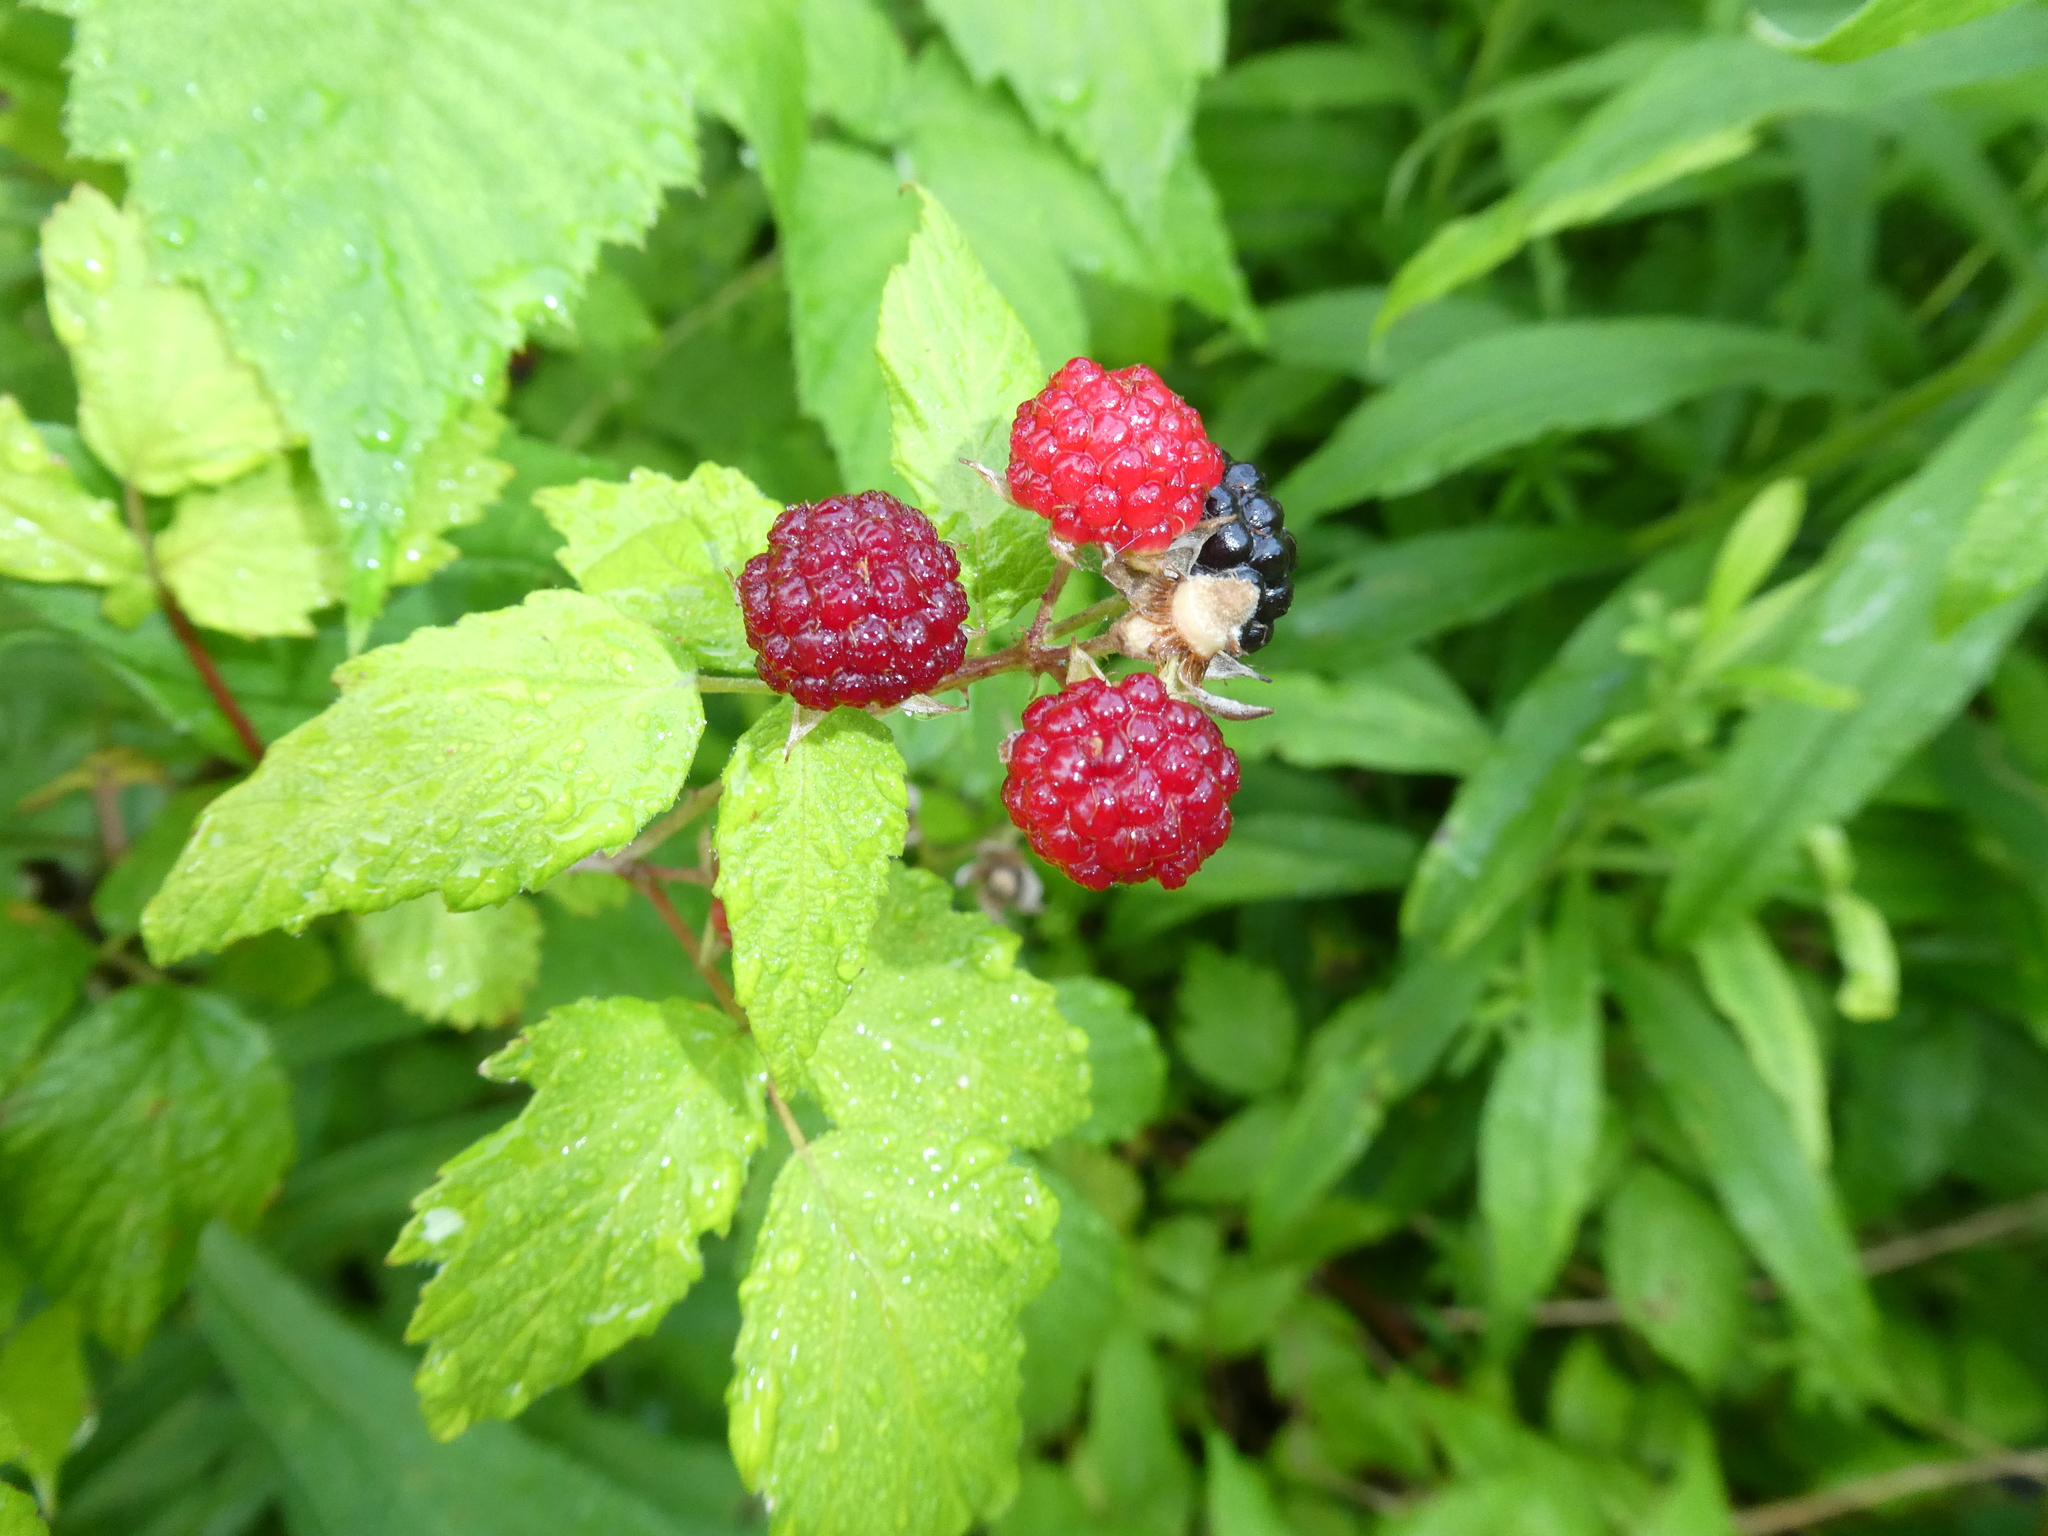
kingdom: Plantae
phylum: Tracheophyta
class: Magnoliopsida
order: Rosales
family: Rosaceae
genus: Rubus
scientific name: Rubus occidentalis
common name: Black raspberry
